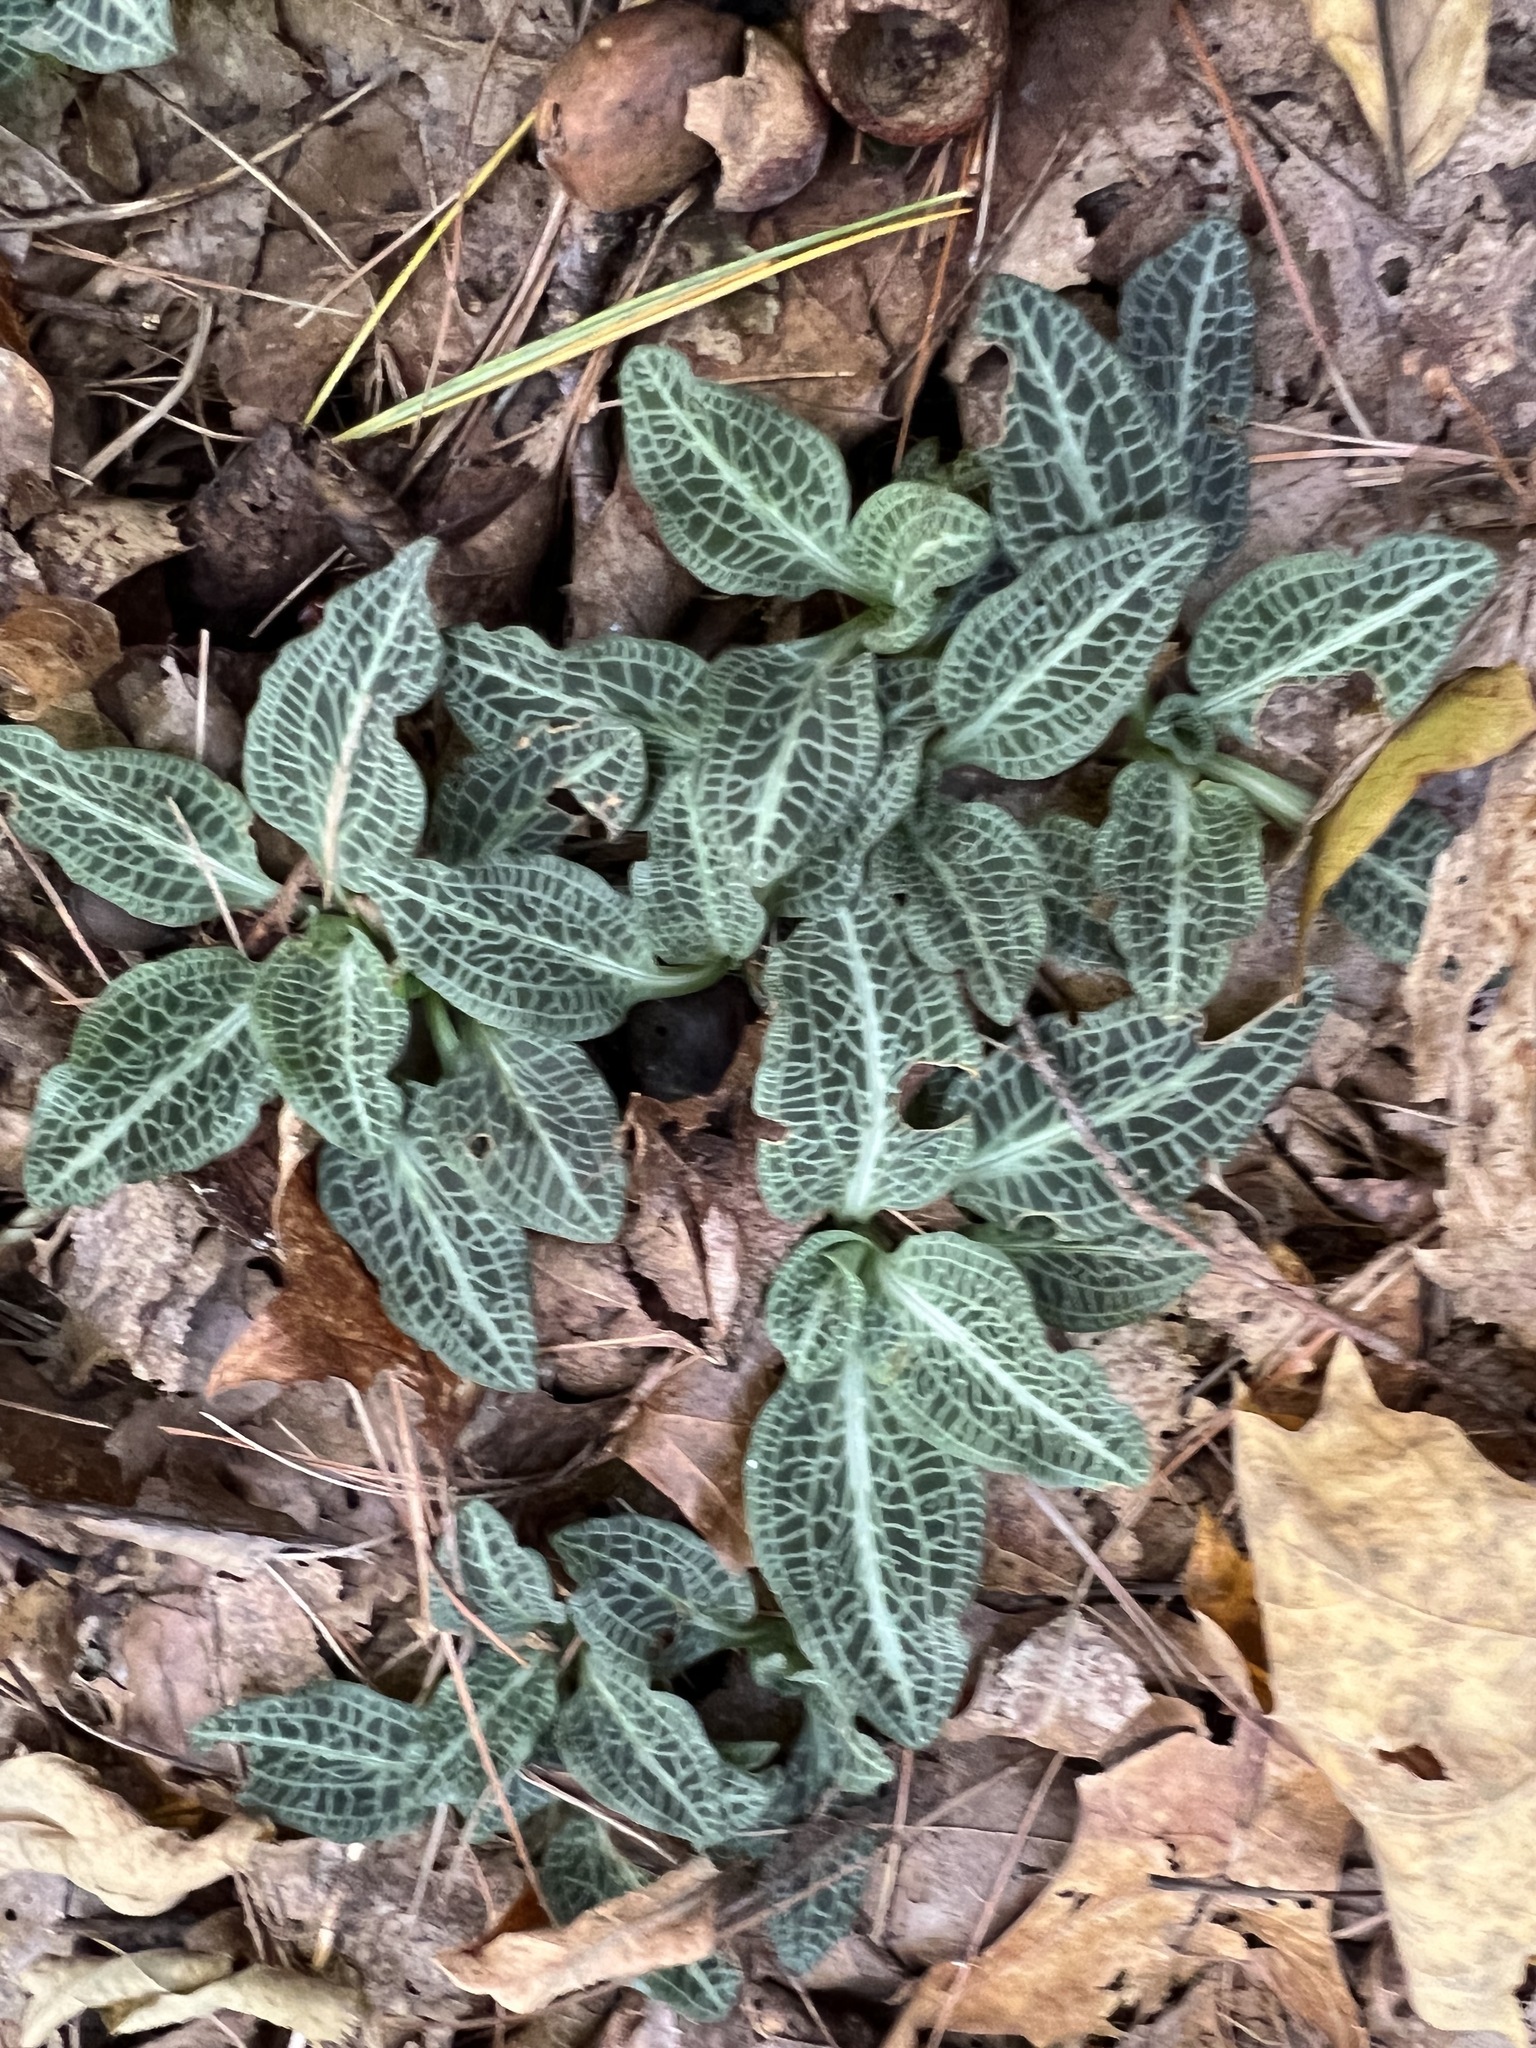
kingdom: Plantae
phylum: Tracheophyta
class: Liliopsida
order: Asparagales
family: Orchidaceae
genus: Goodyera
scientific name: Goodyera pubescens
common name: Downy rattlesnake-plantain
